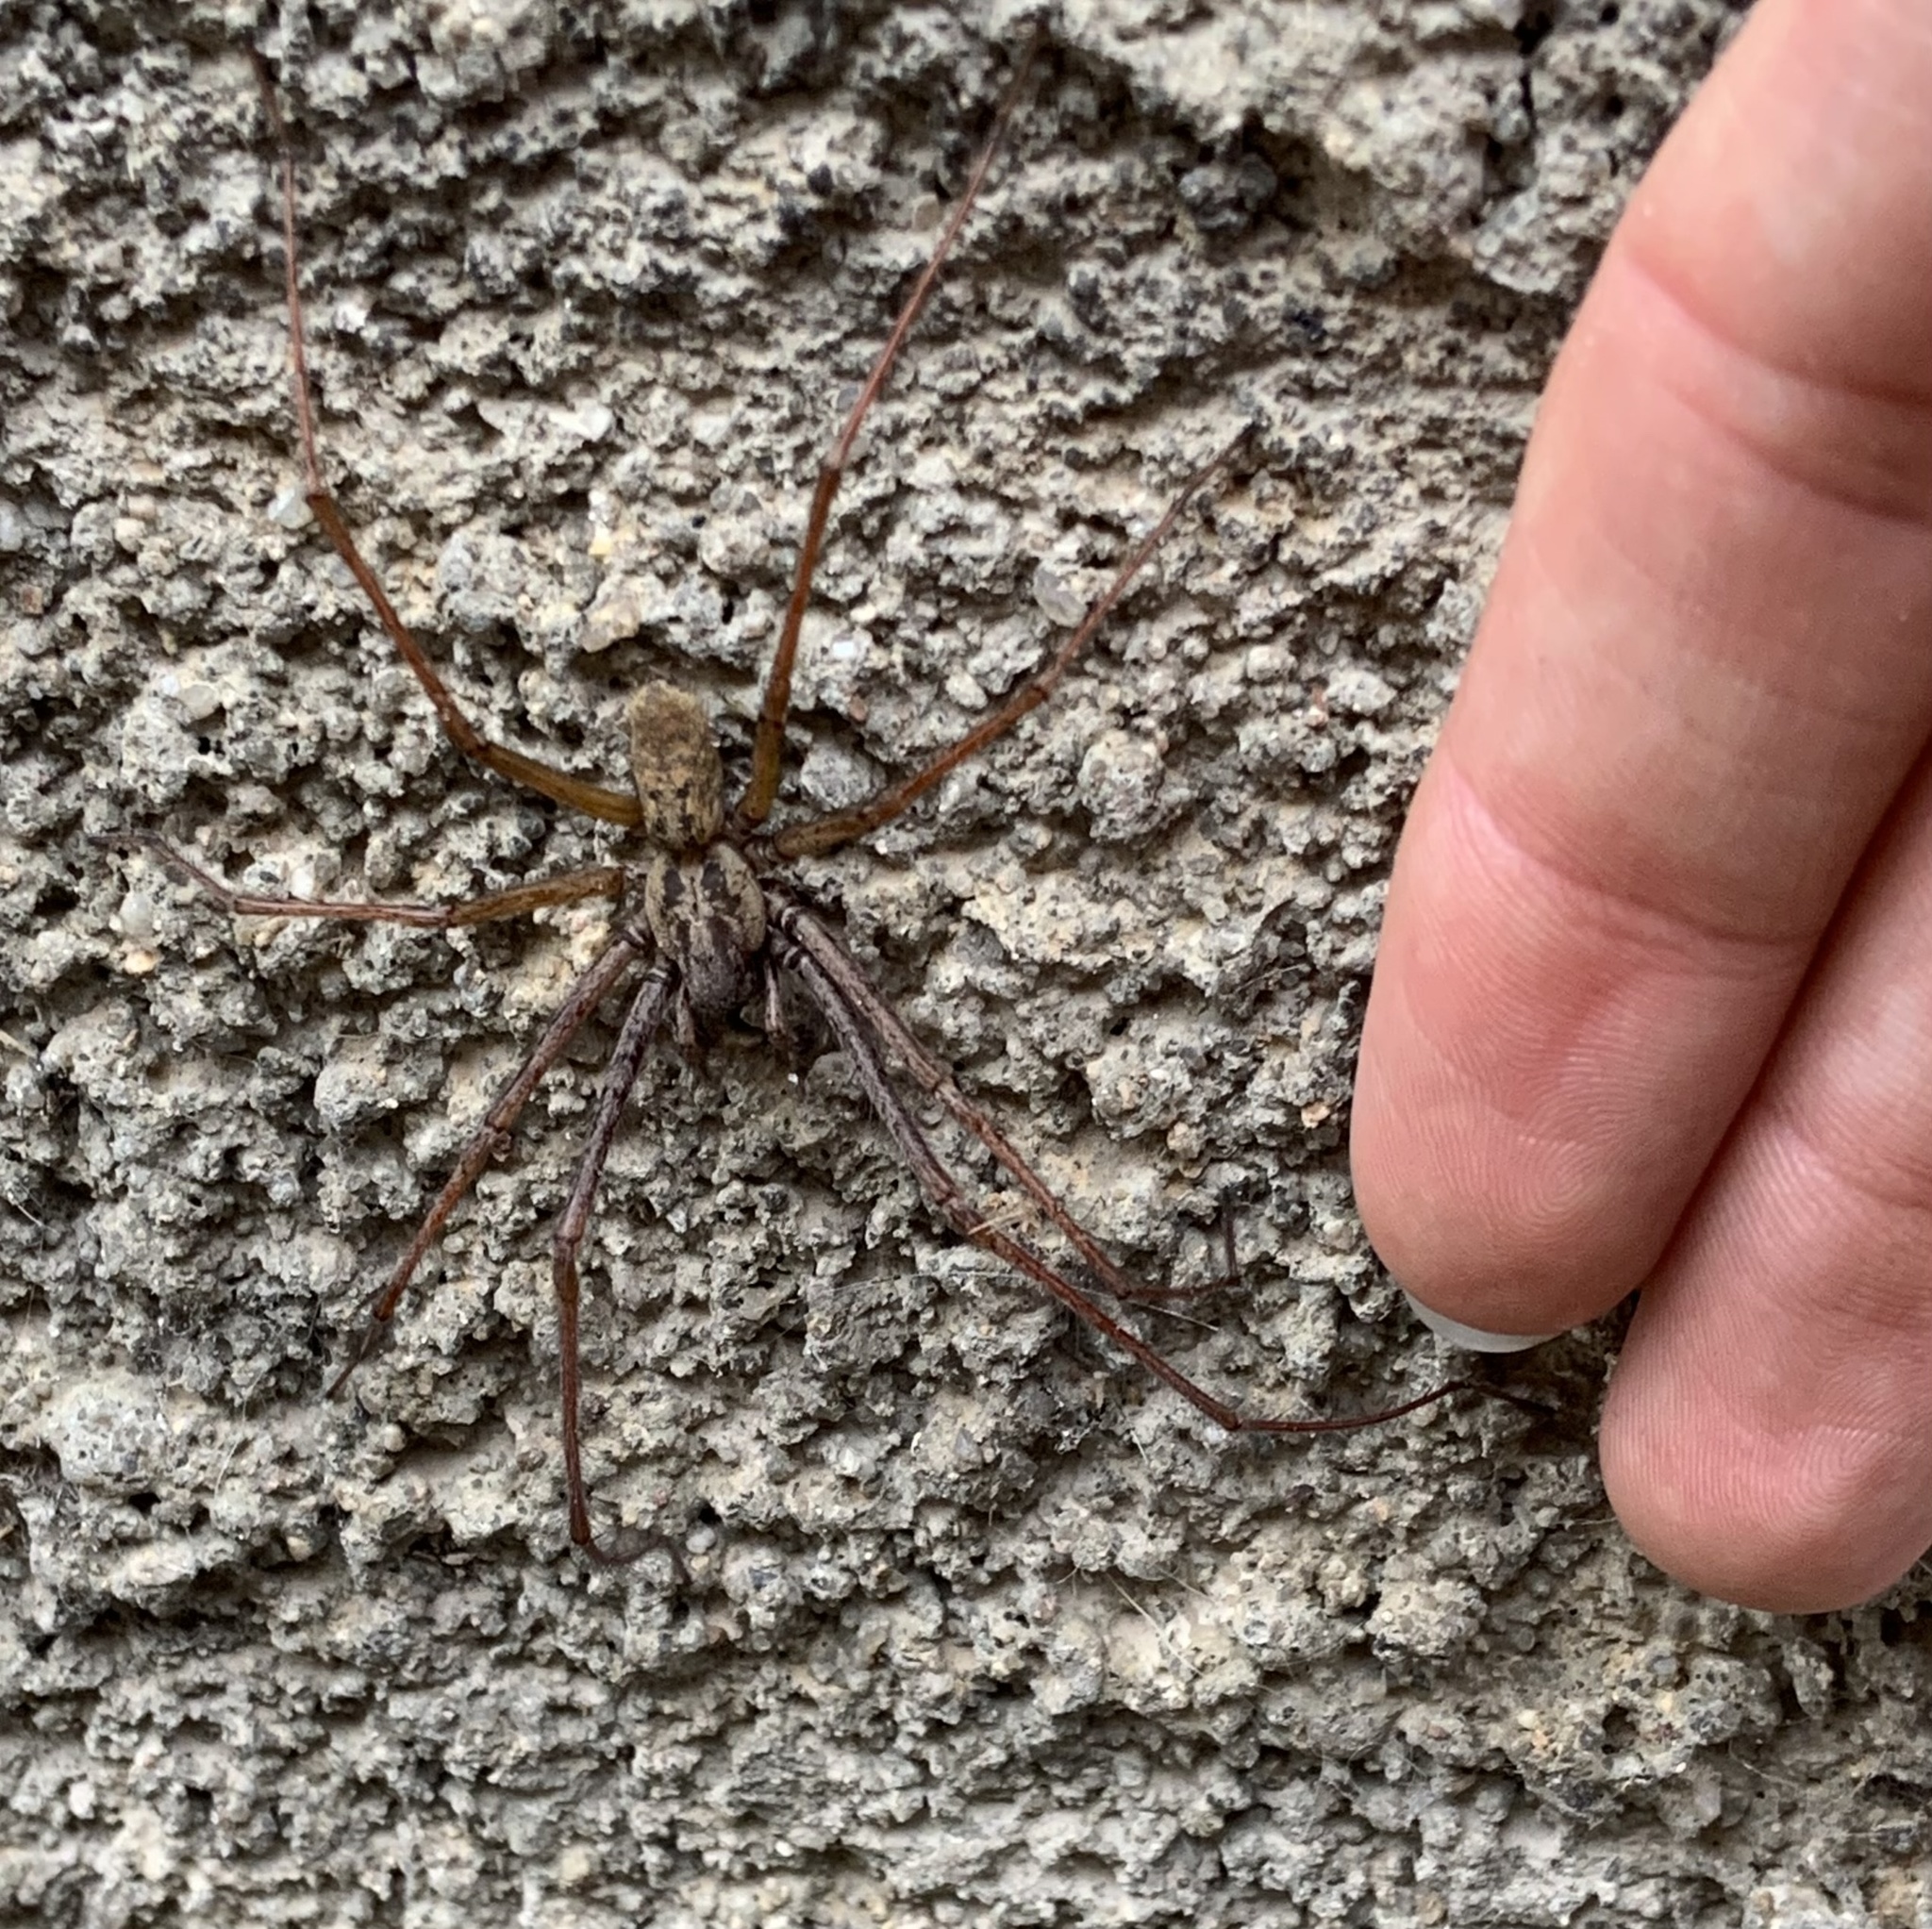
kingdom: Animalia
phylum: Arthropoda
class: Arachnida
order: Araneae
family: Agelenidae
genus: Eratigena
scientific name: Eratigena saeva
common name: House spider
